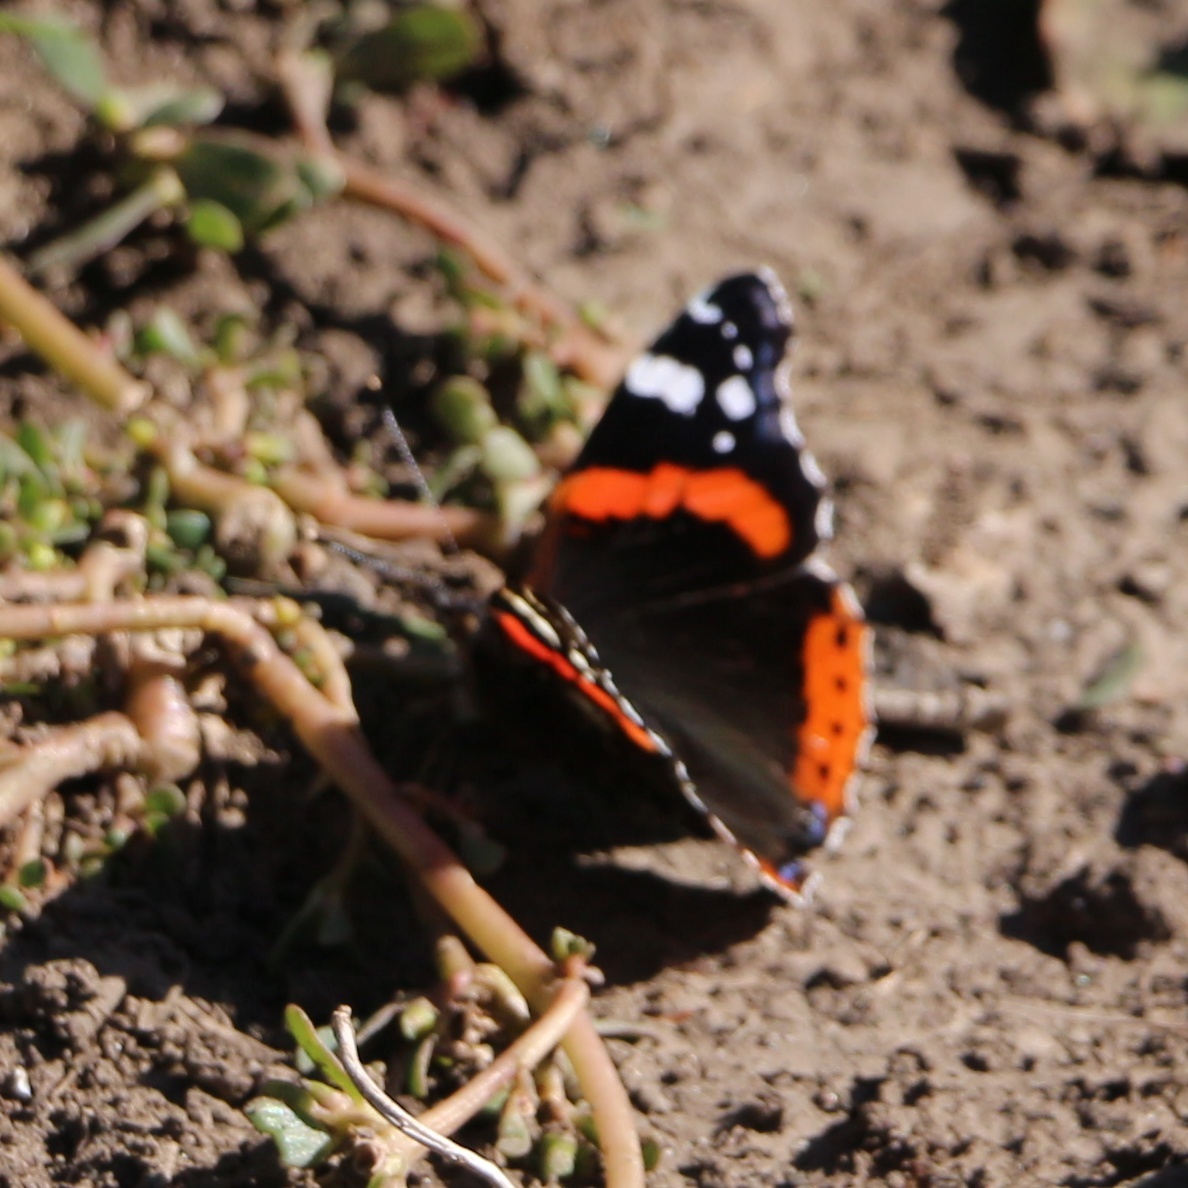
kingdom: Animalia
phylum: Arthropoda
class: Insecta
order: Lepidoptera
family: Nymphalidae
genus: Vanessa
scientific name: Vanessa atalanta
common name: Red admiral
